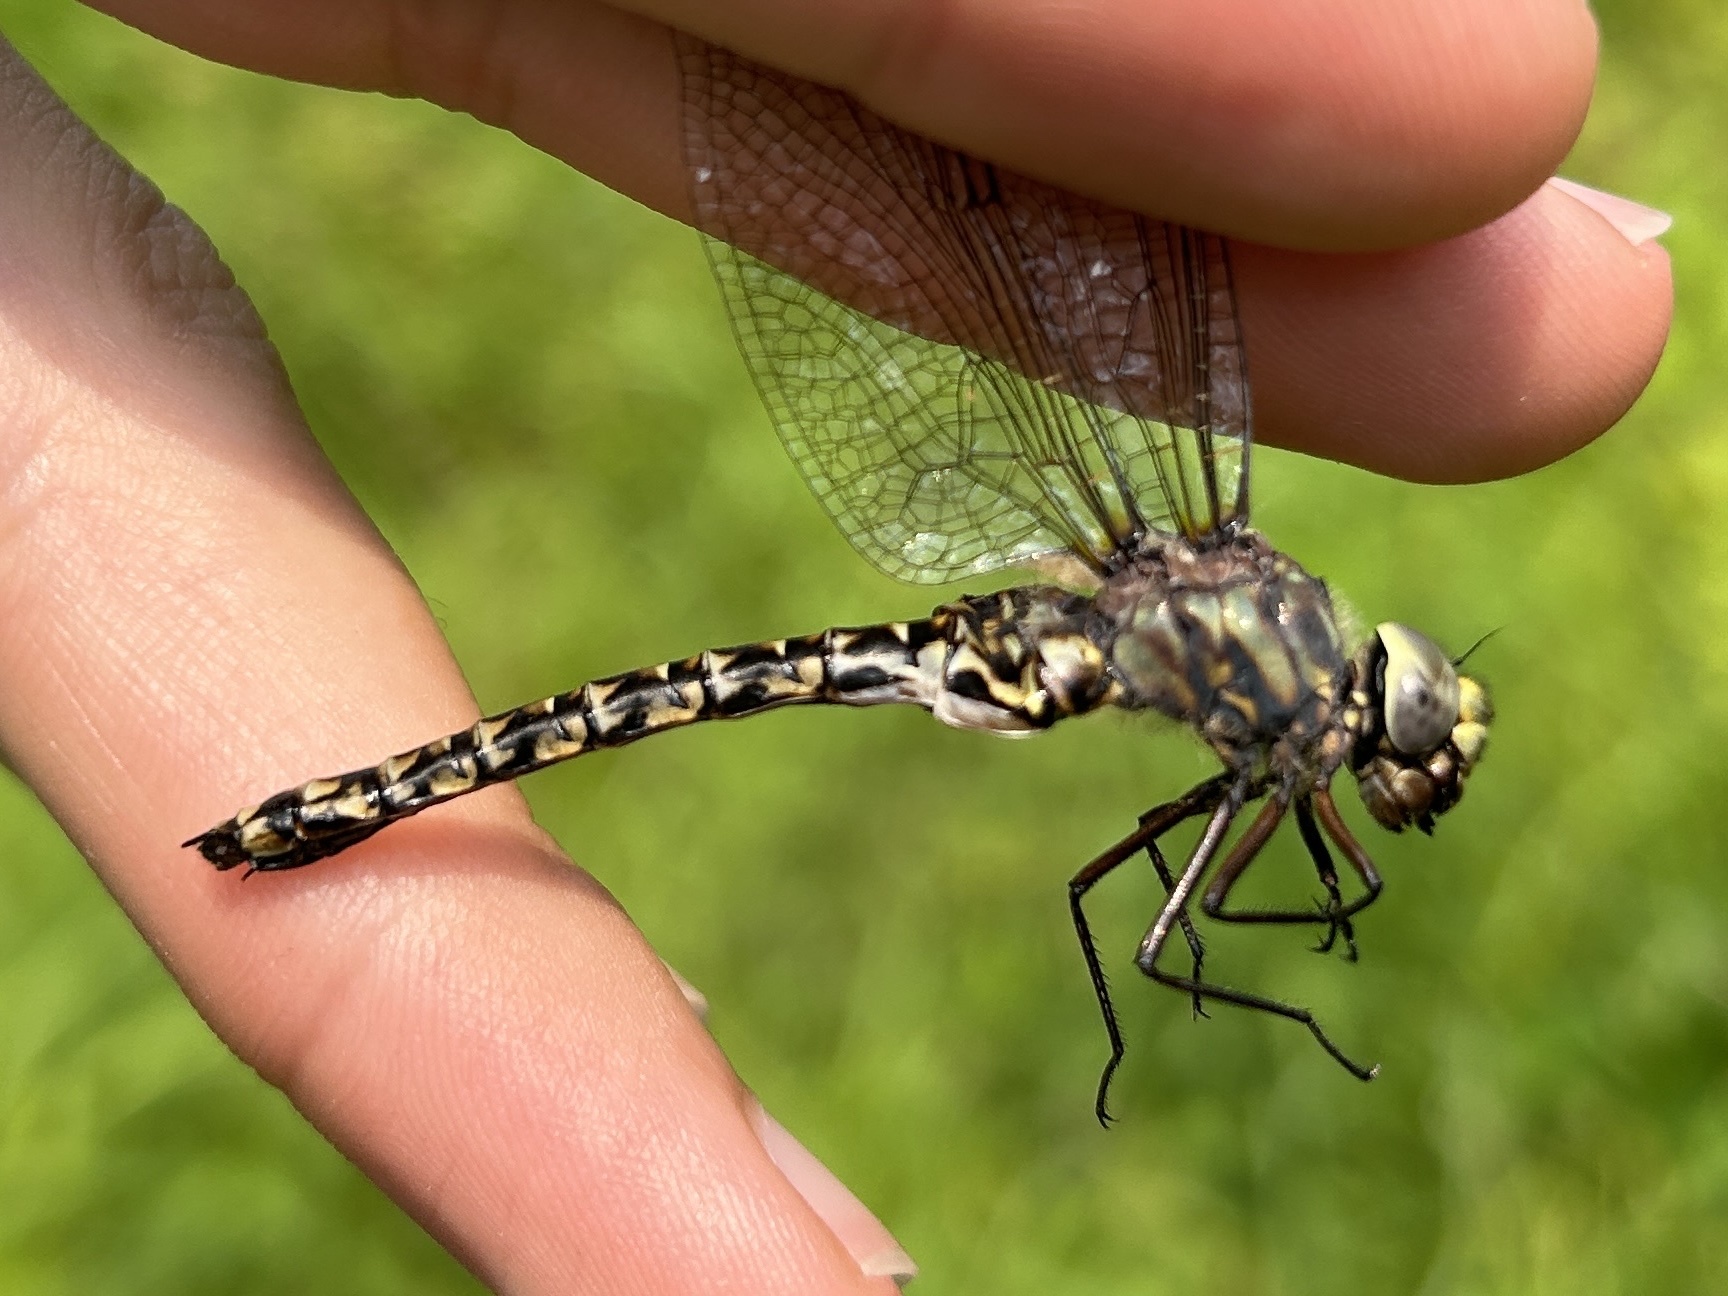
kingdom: Animalia
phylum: Arthropoda
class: Insecta
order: Odonata
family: Aeshnidae
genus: Gomphaeschna
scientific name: Gomphaeschna furcillata
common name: Harlequin darner
